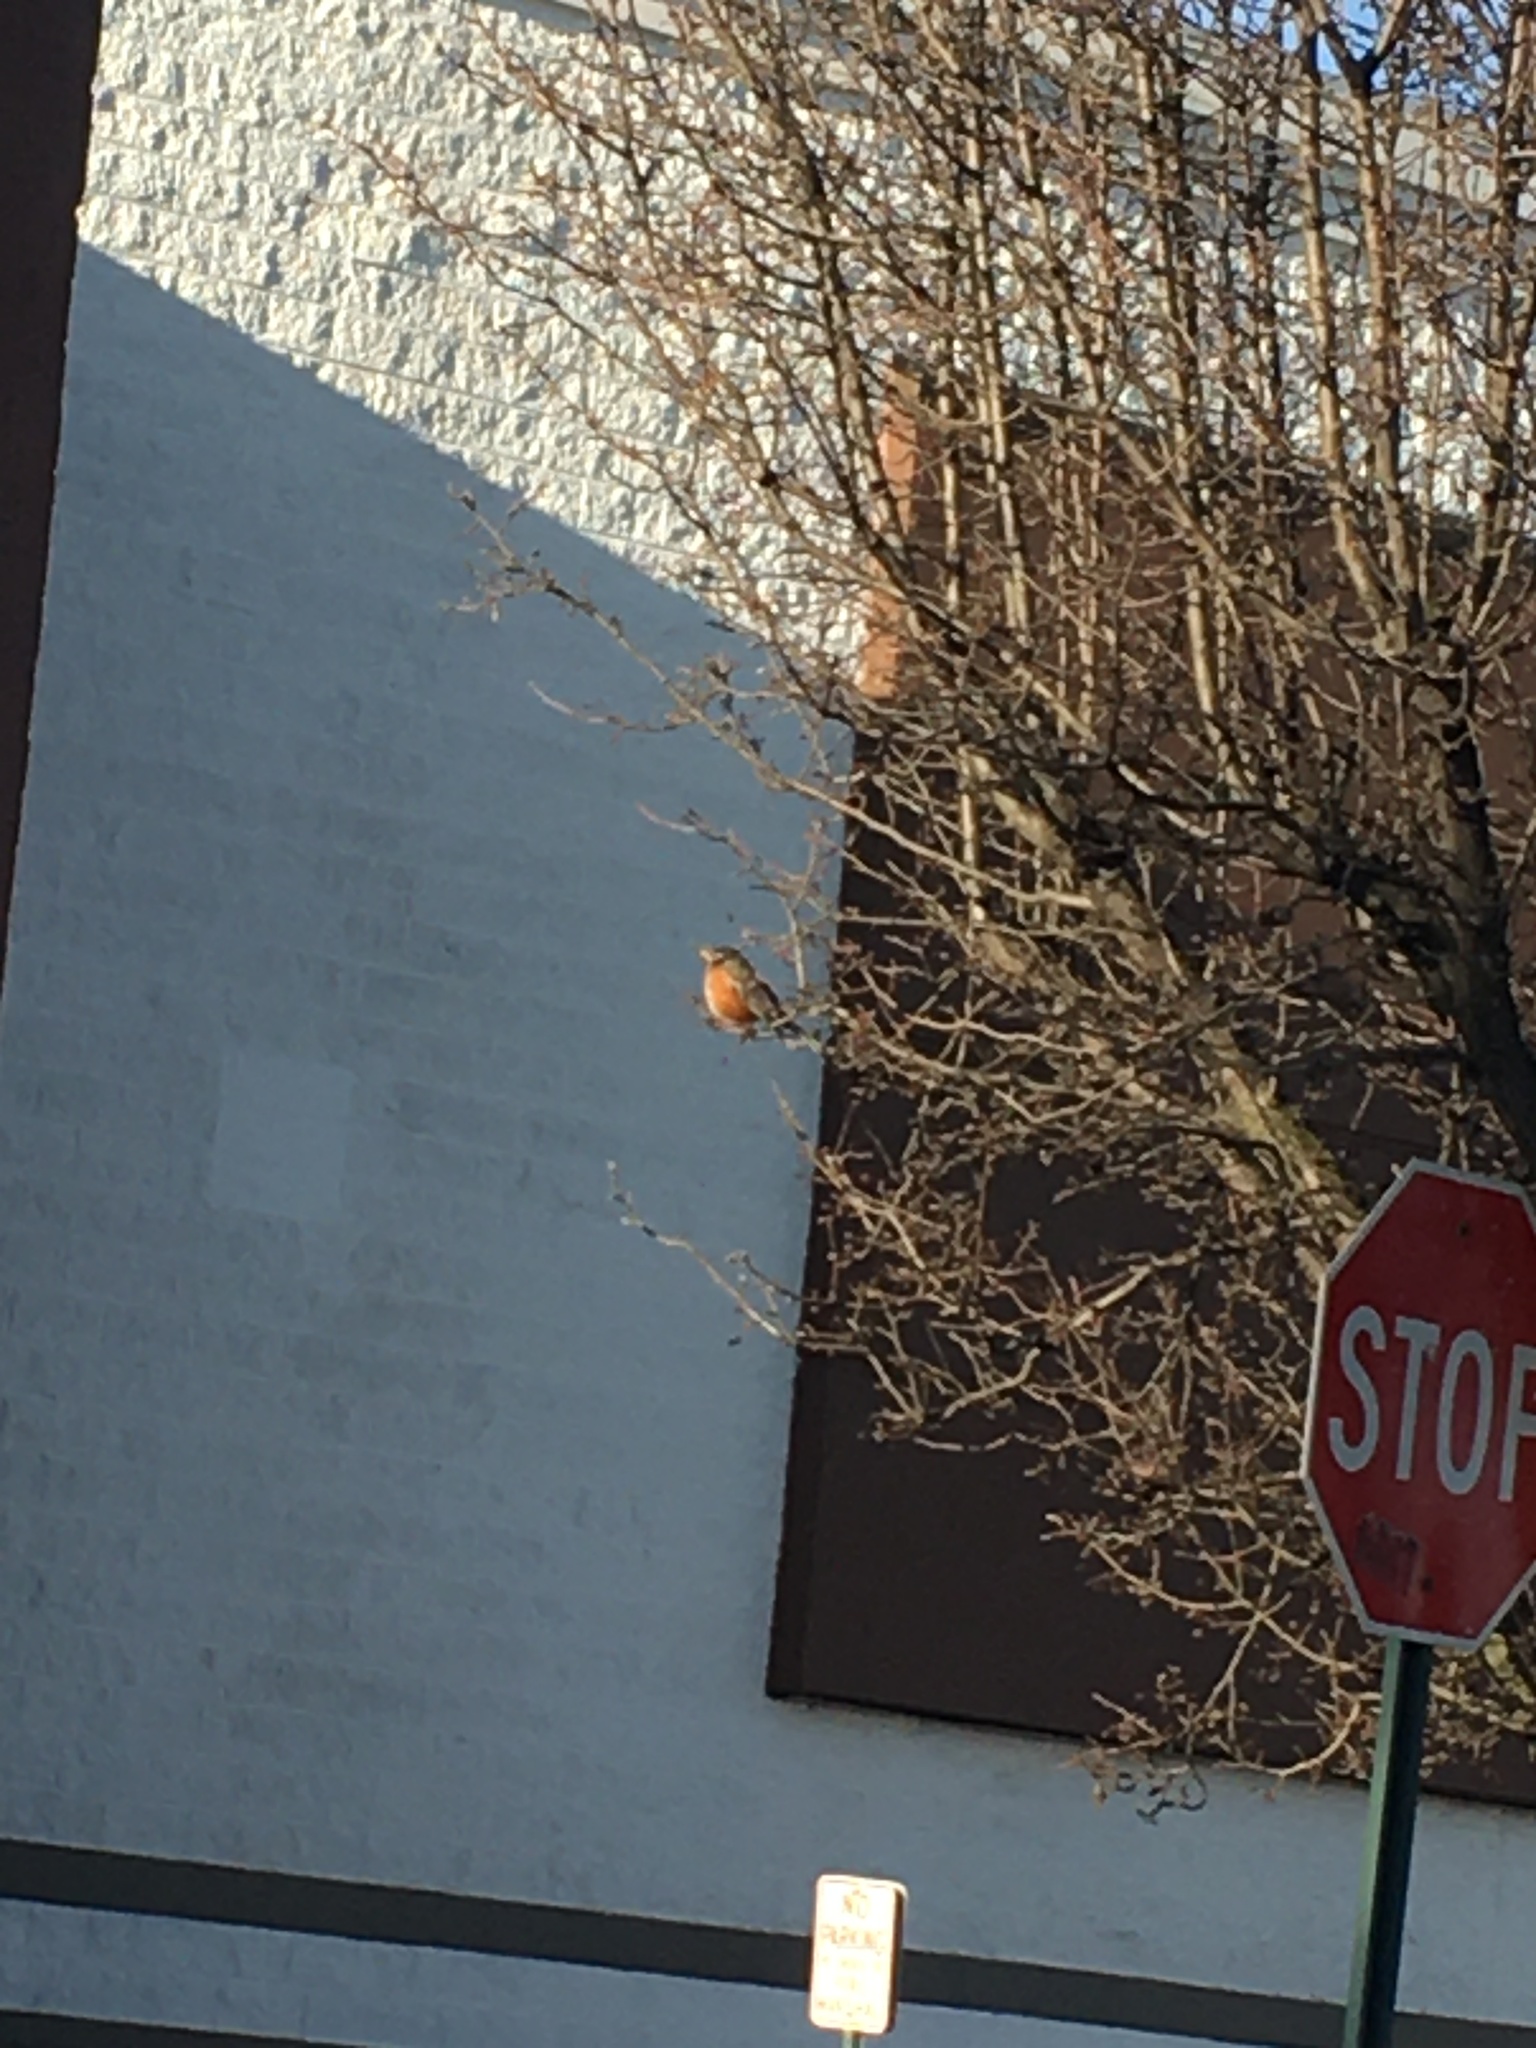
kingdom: Animalia
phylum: Chordata
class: Aves
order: Passeriformes
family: Turdidae
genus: Turdus
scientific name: Turdus migratorius
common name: American robin
